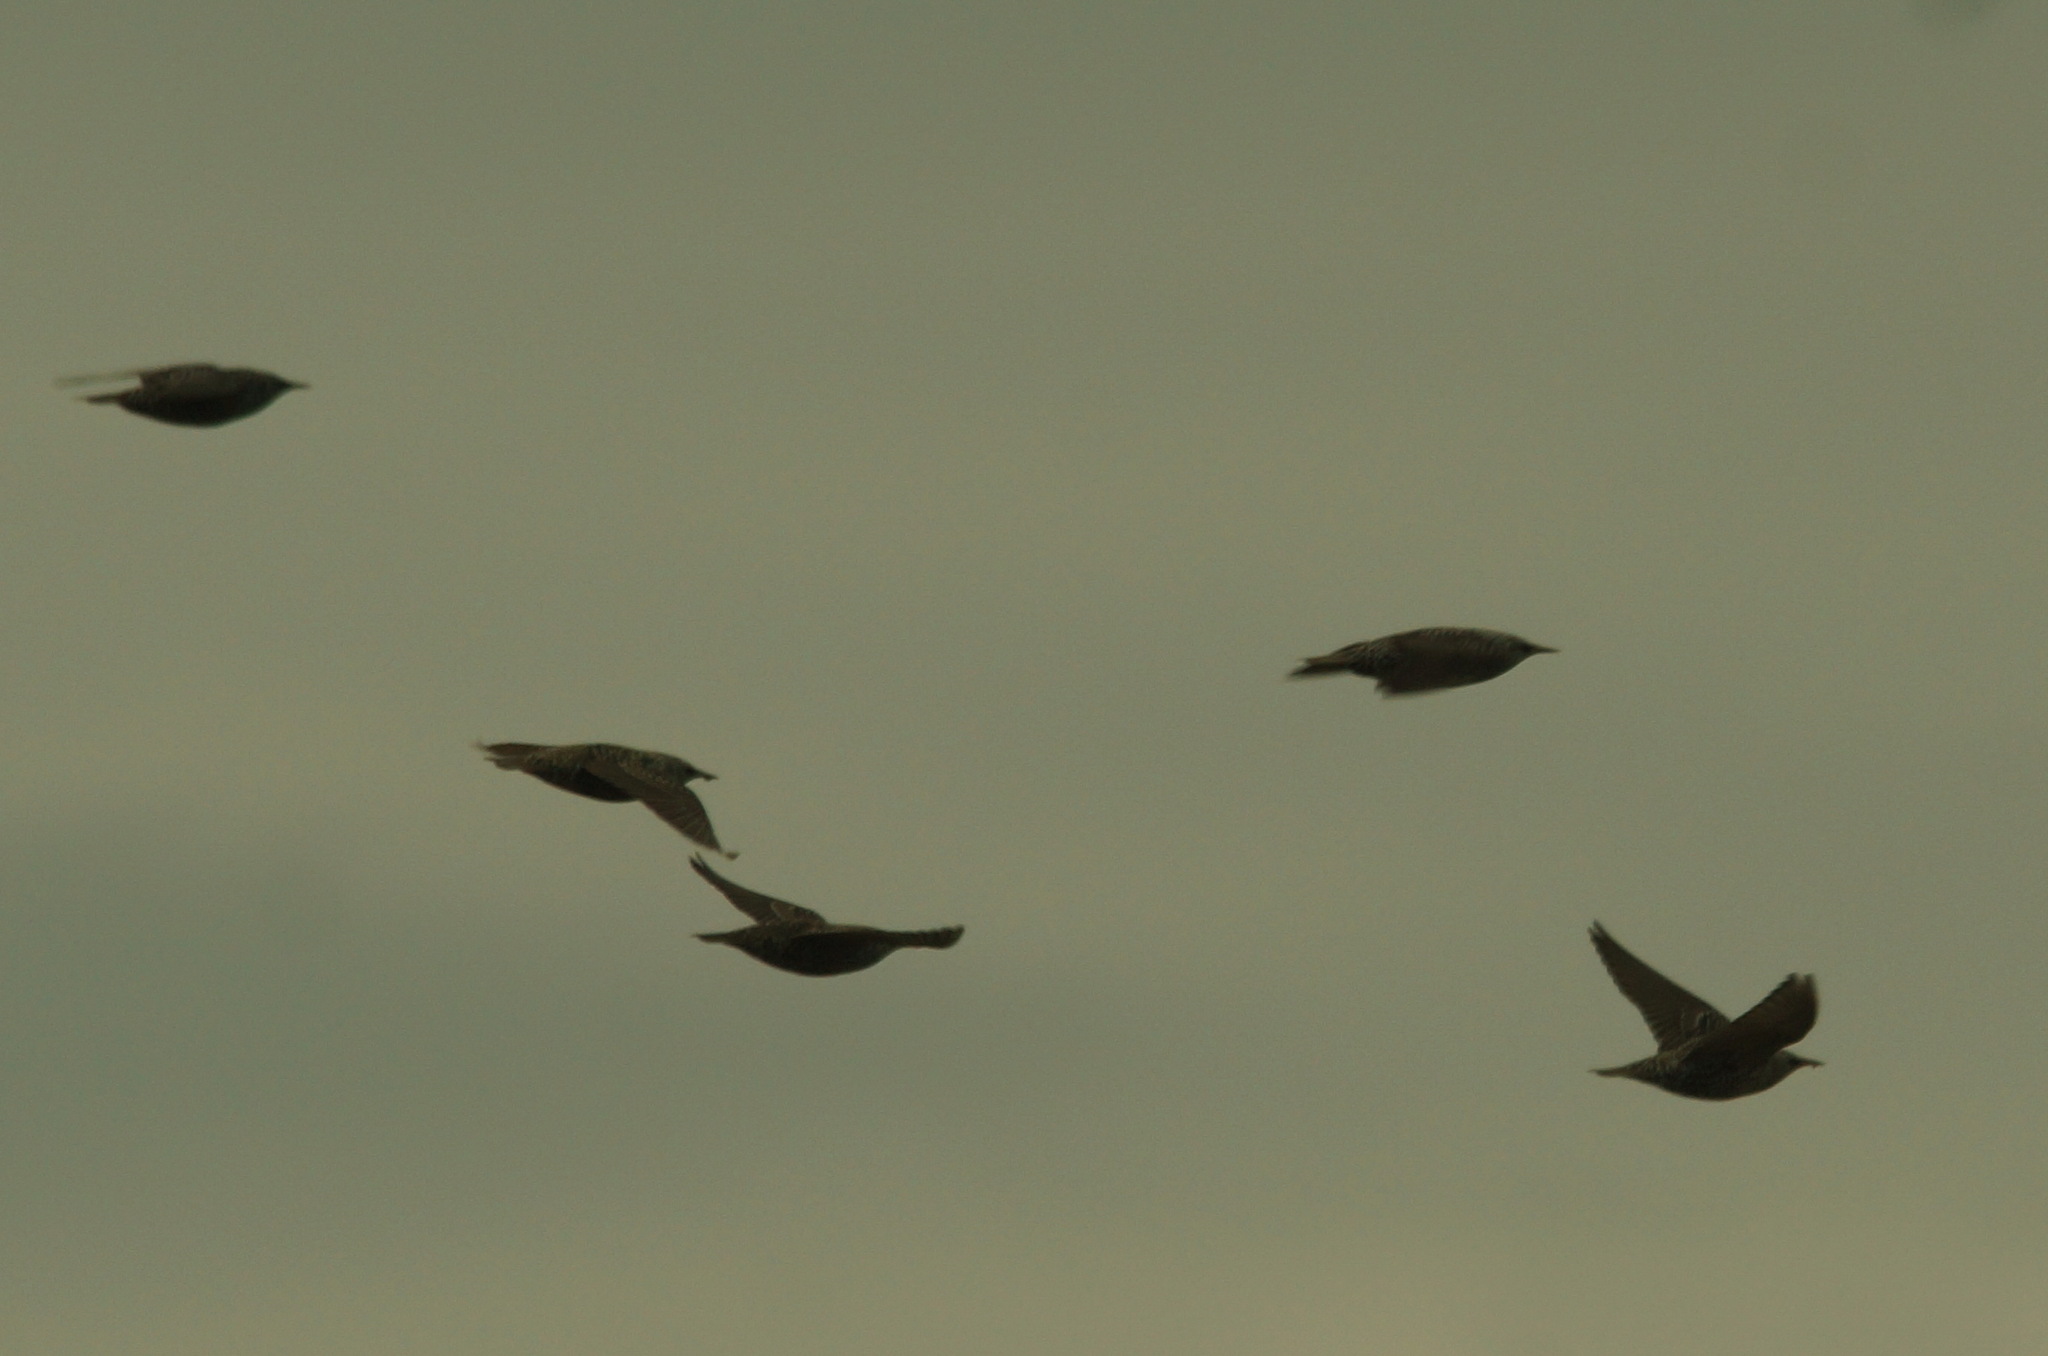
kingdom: Animalia
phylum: Chordata
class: Aves
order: Passeriformes
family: Sturnidae
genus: Sturnus
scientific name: Sturnus vulgaris
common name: Common starling
